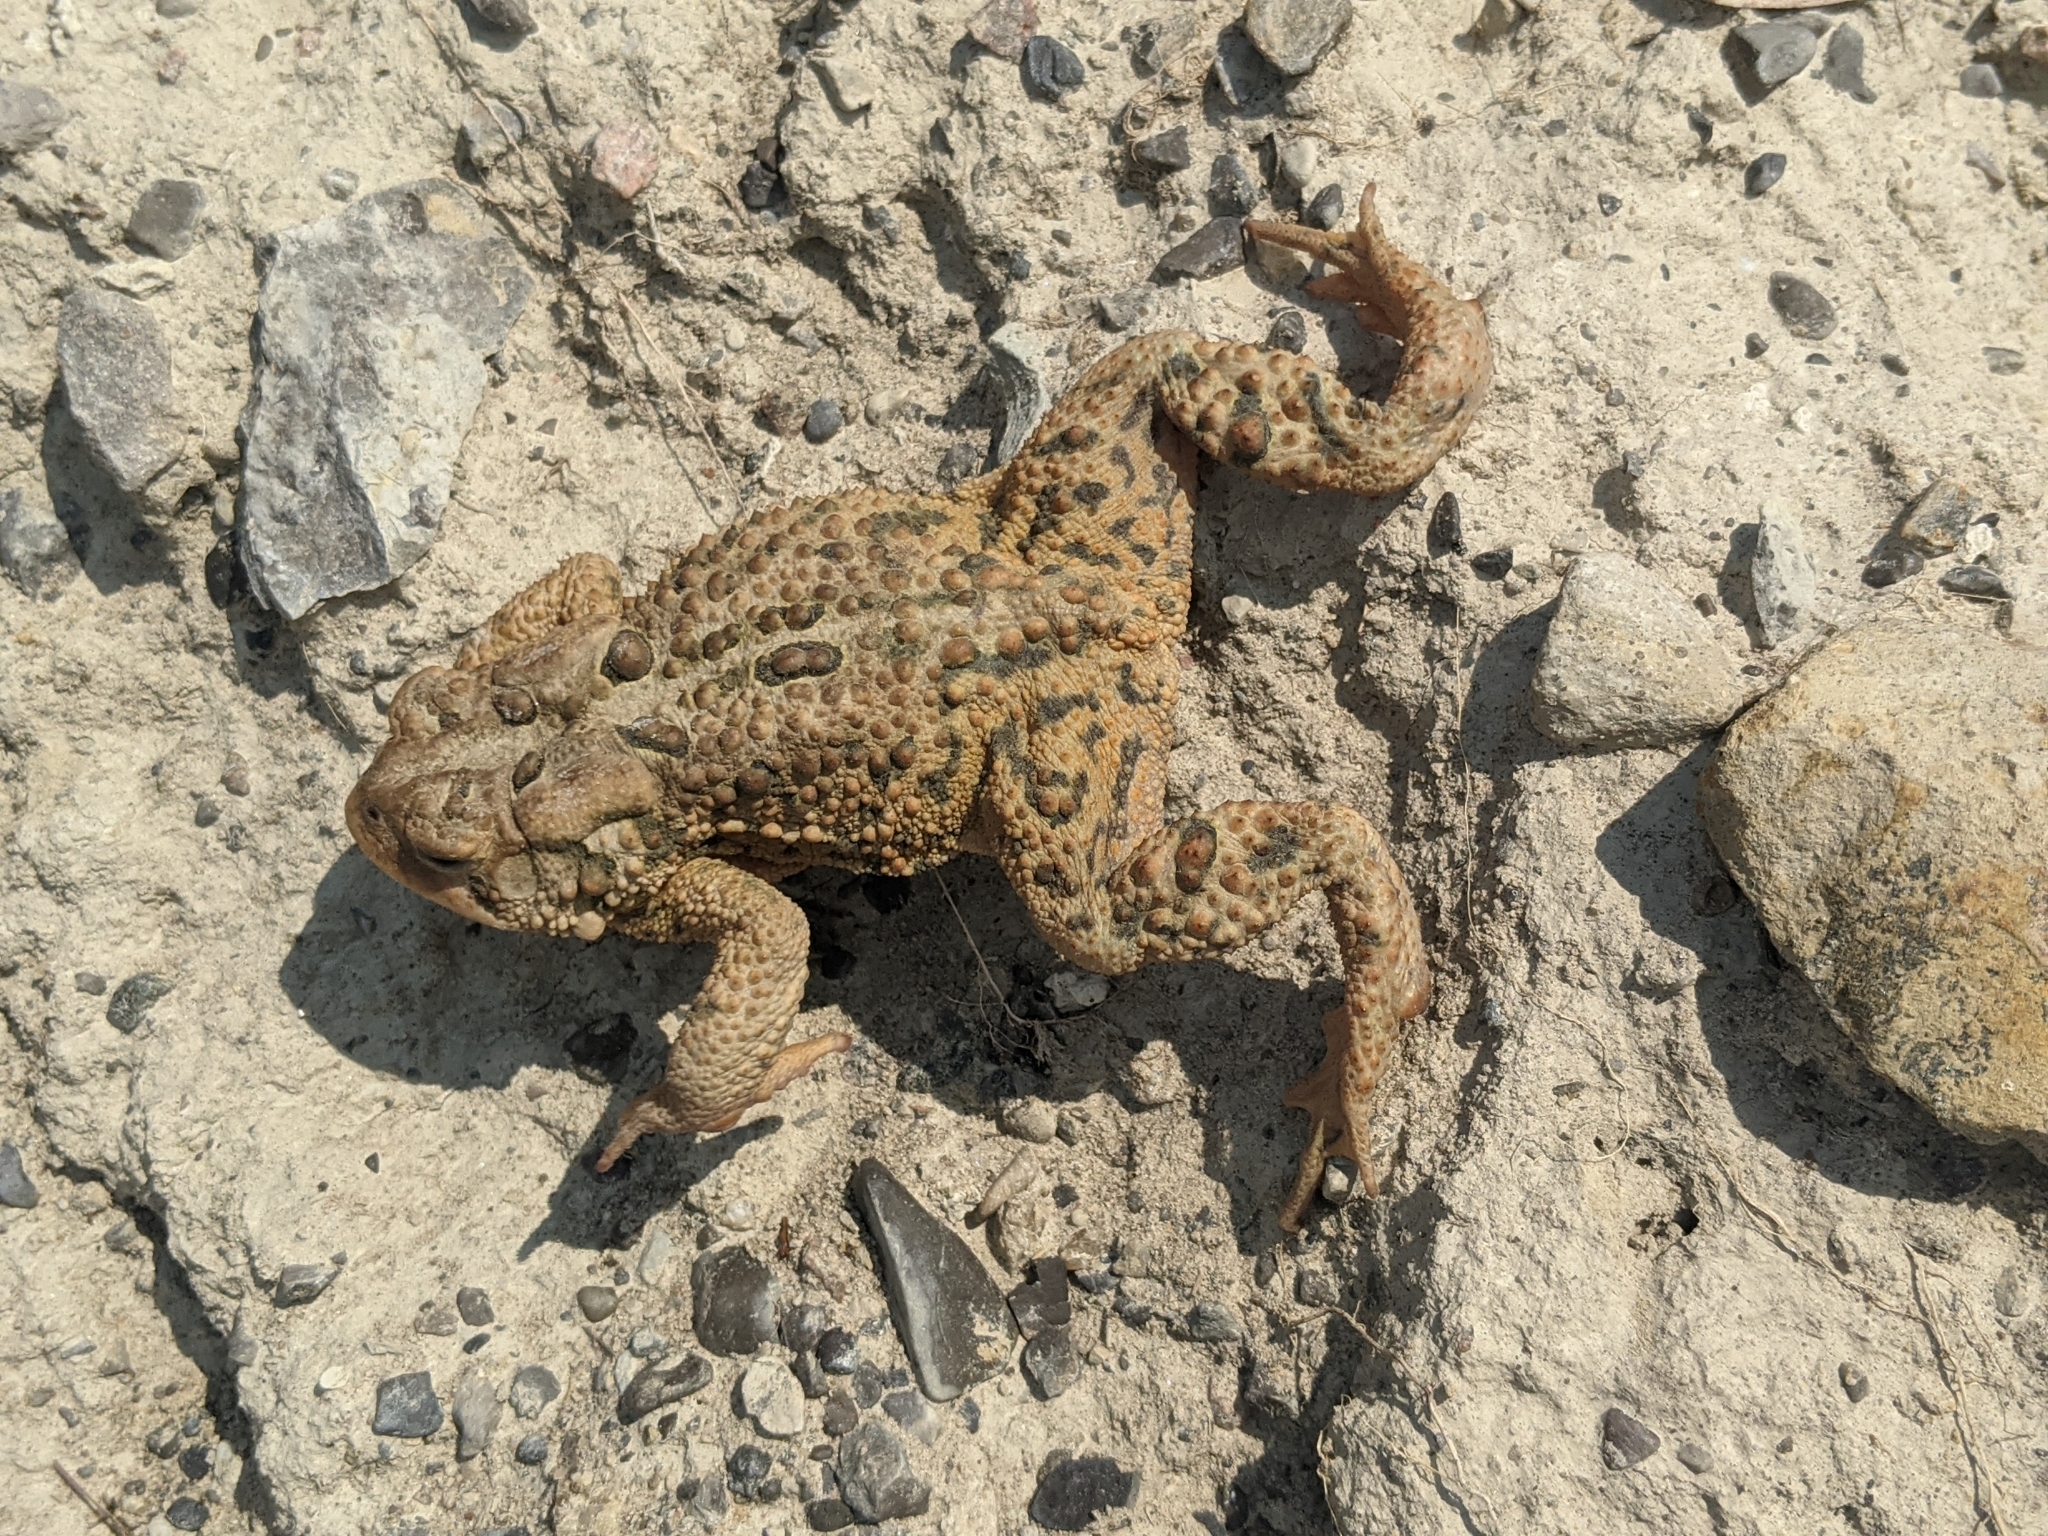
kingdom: Animalia
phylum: Chordata
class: Amphibia
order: Anura
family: Bufonidae
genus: Anaxyrus
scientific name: Anaxyrus americanus
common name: American toad
